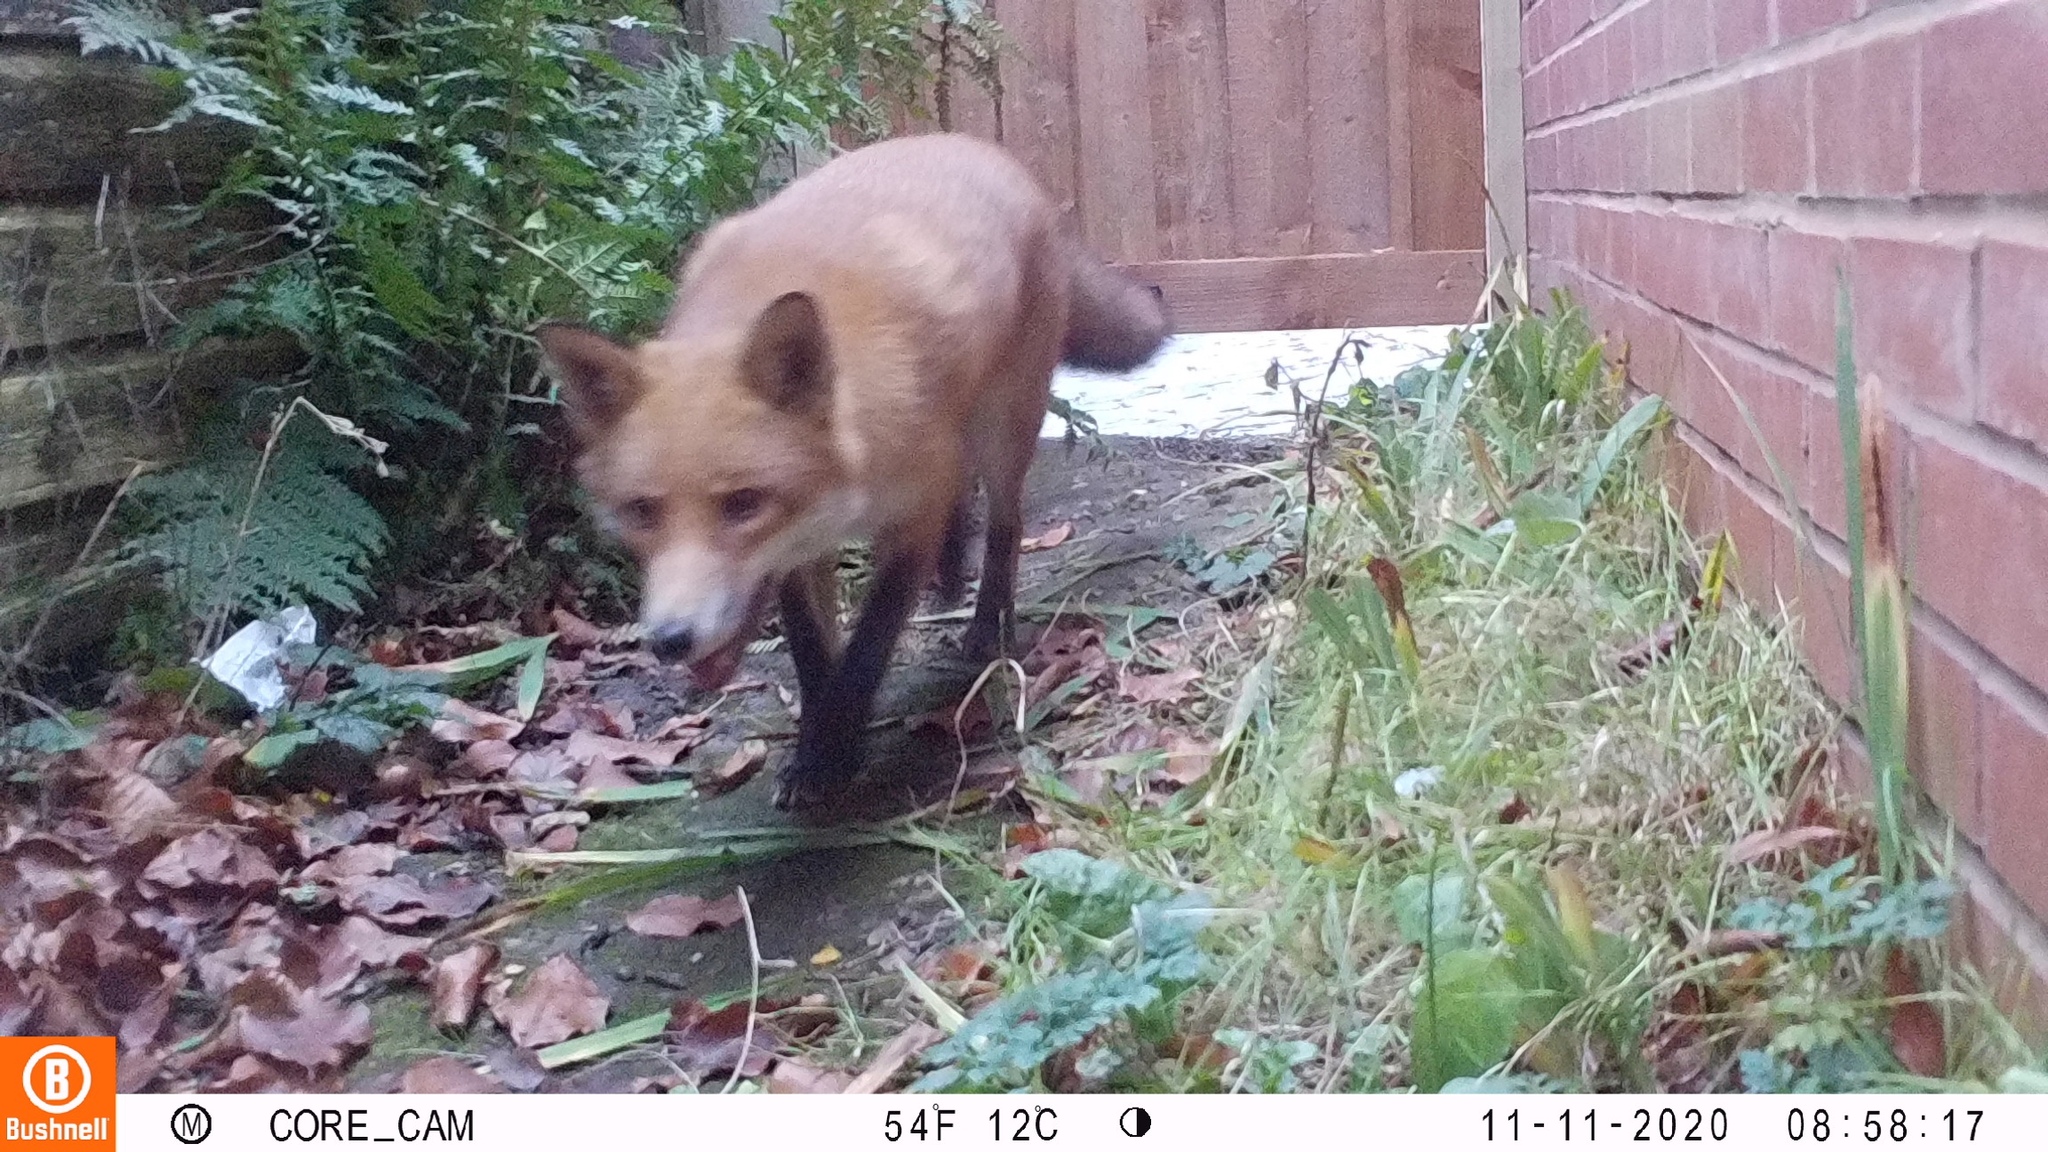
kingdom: Animalia
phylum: Chordata
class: Mammalia
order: Carnivora
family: Canidae
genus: Vulpes
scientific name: Vulpes vulpes
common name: Red fox
